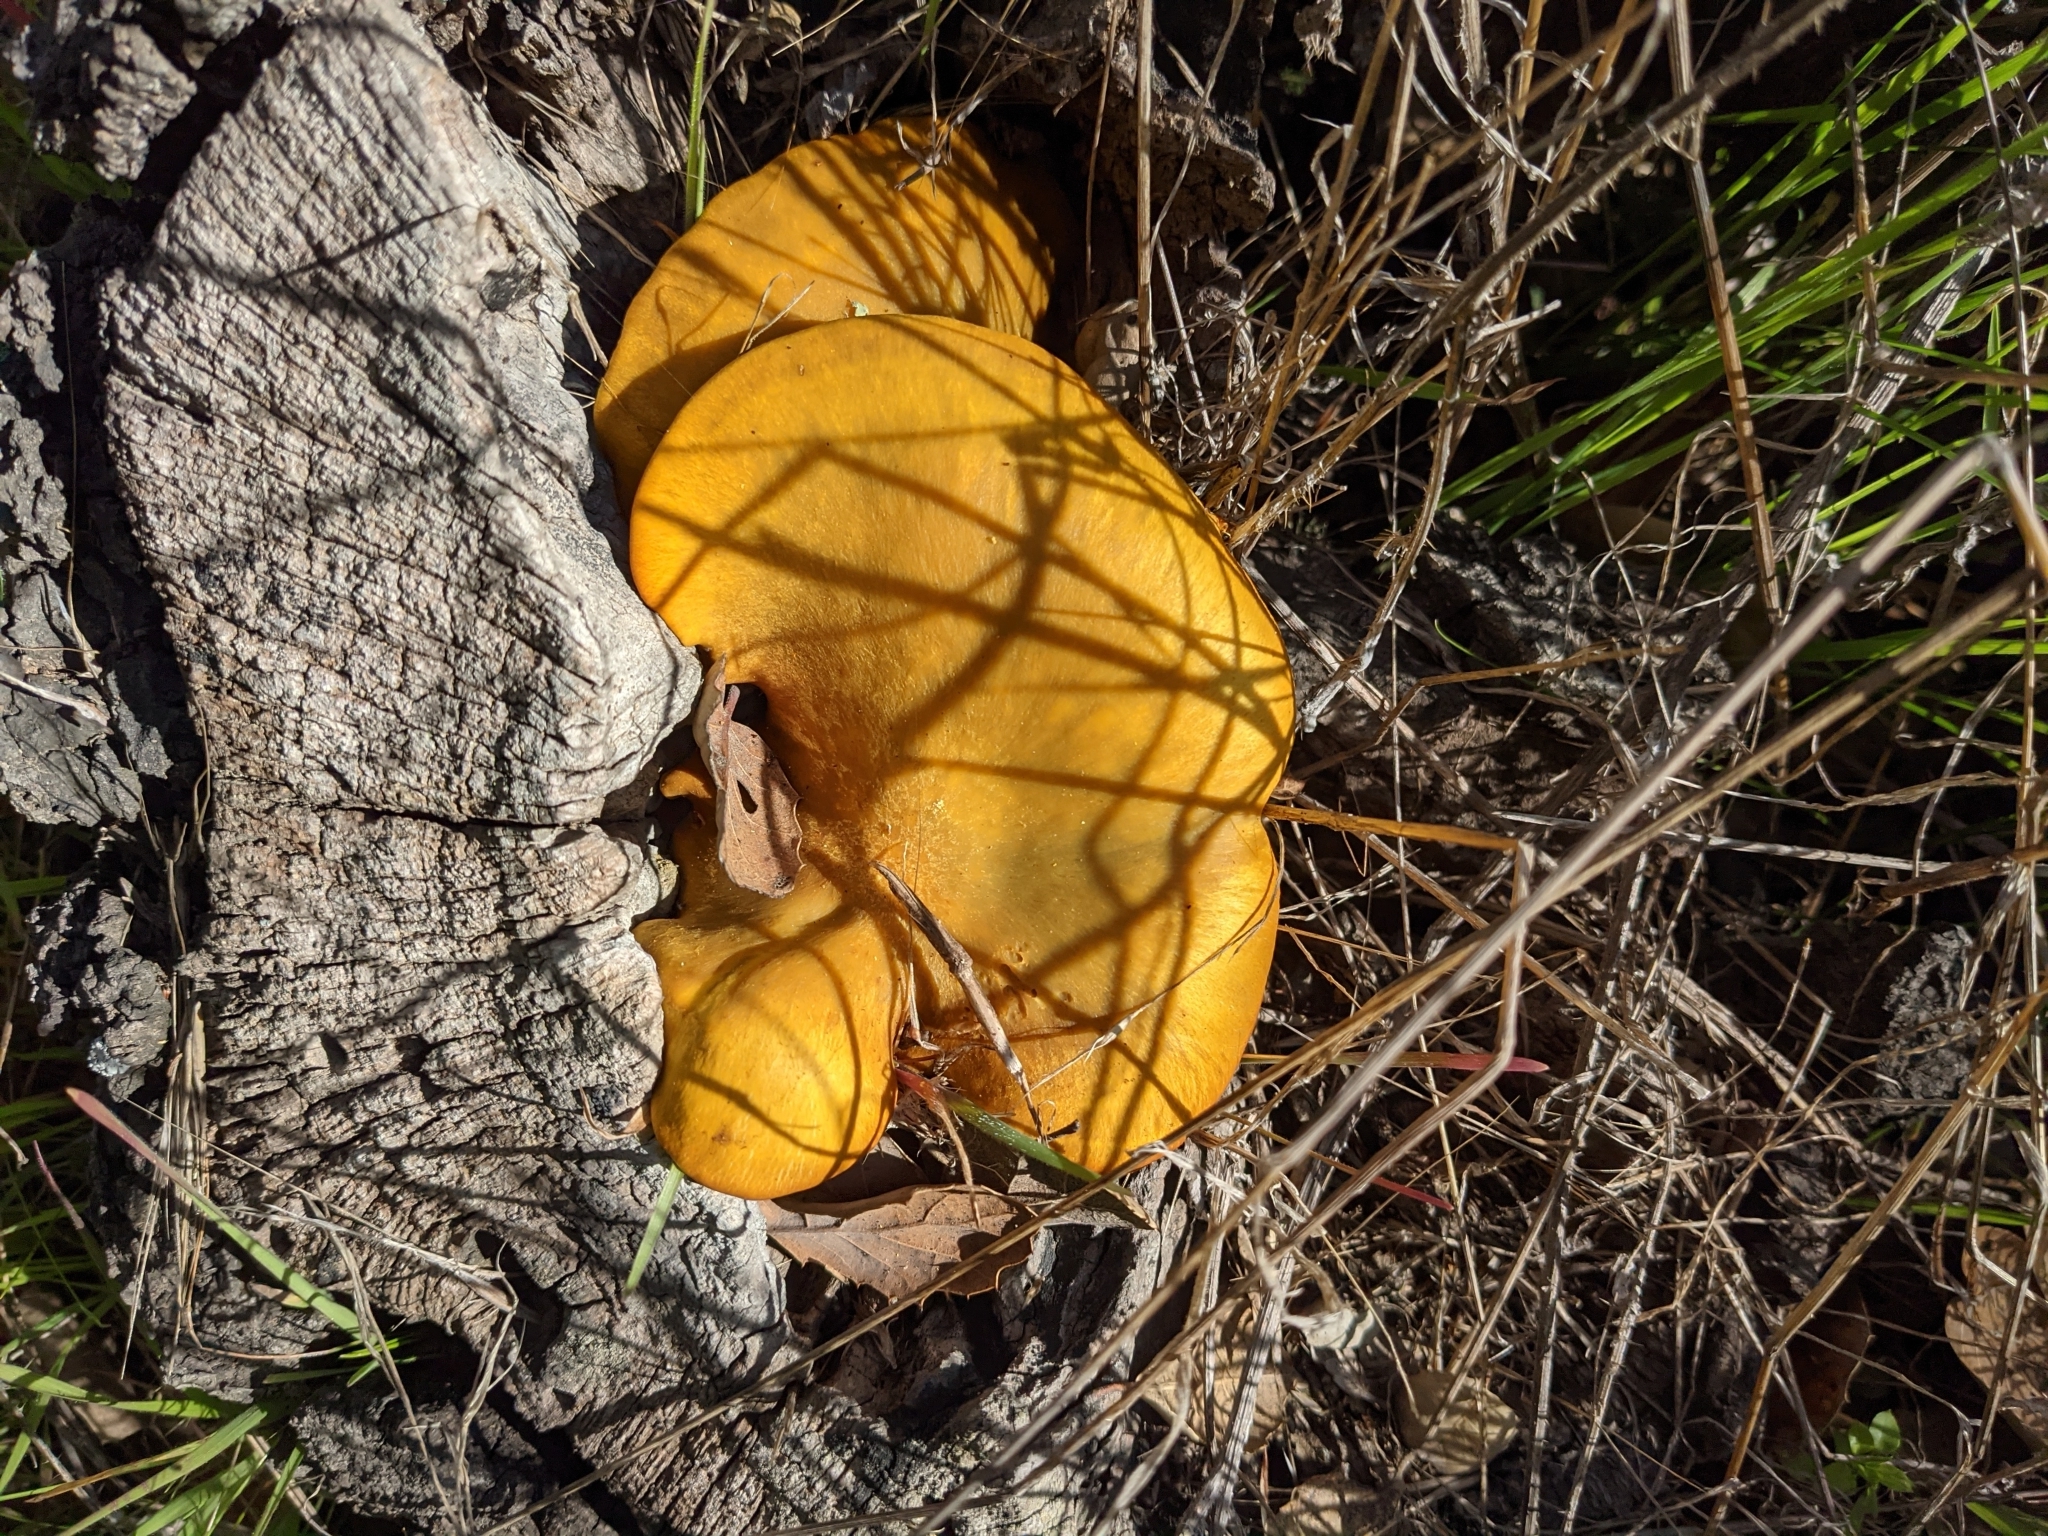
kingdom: Fungi
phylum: Basidiomycota
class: Agaricomycetes
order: Agaricales
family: Omphalotaceae
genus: Omphalotus
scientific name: Omphalotus olivascens
